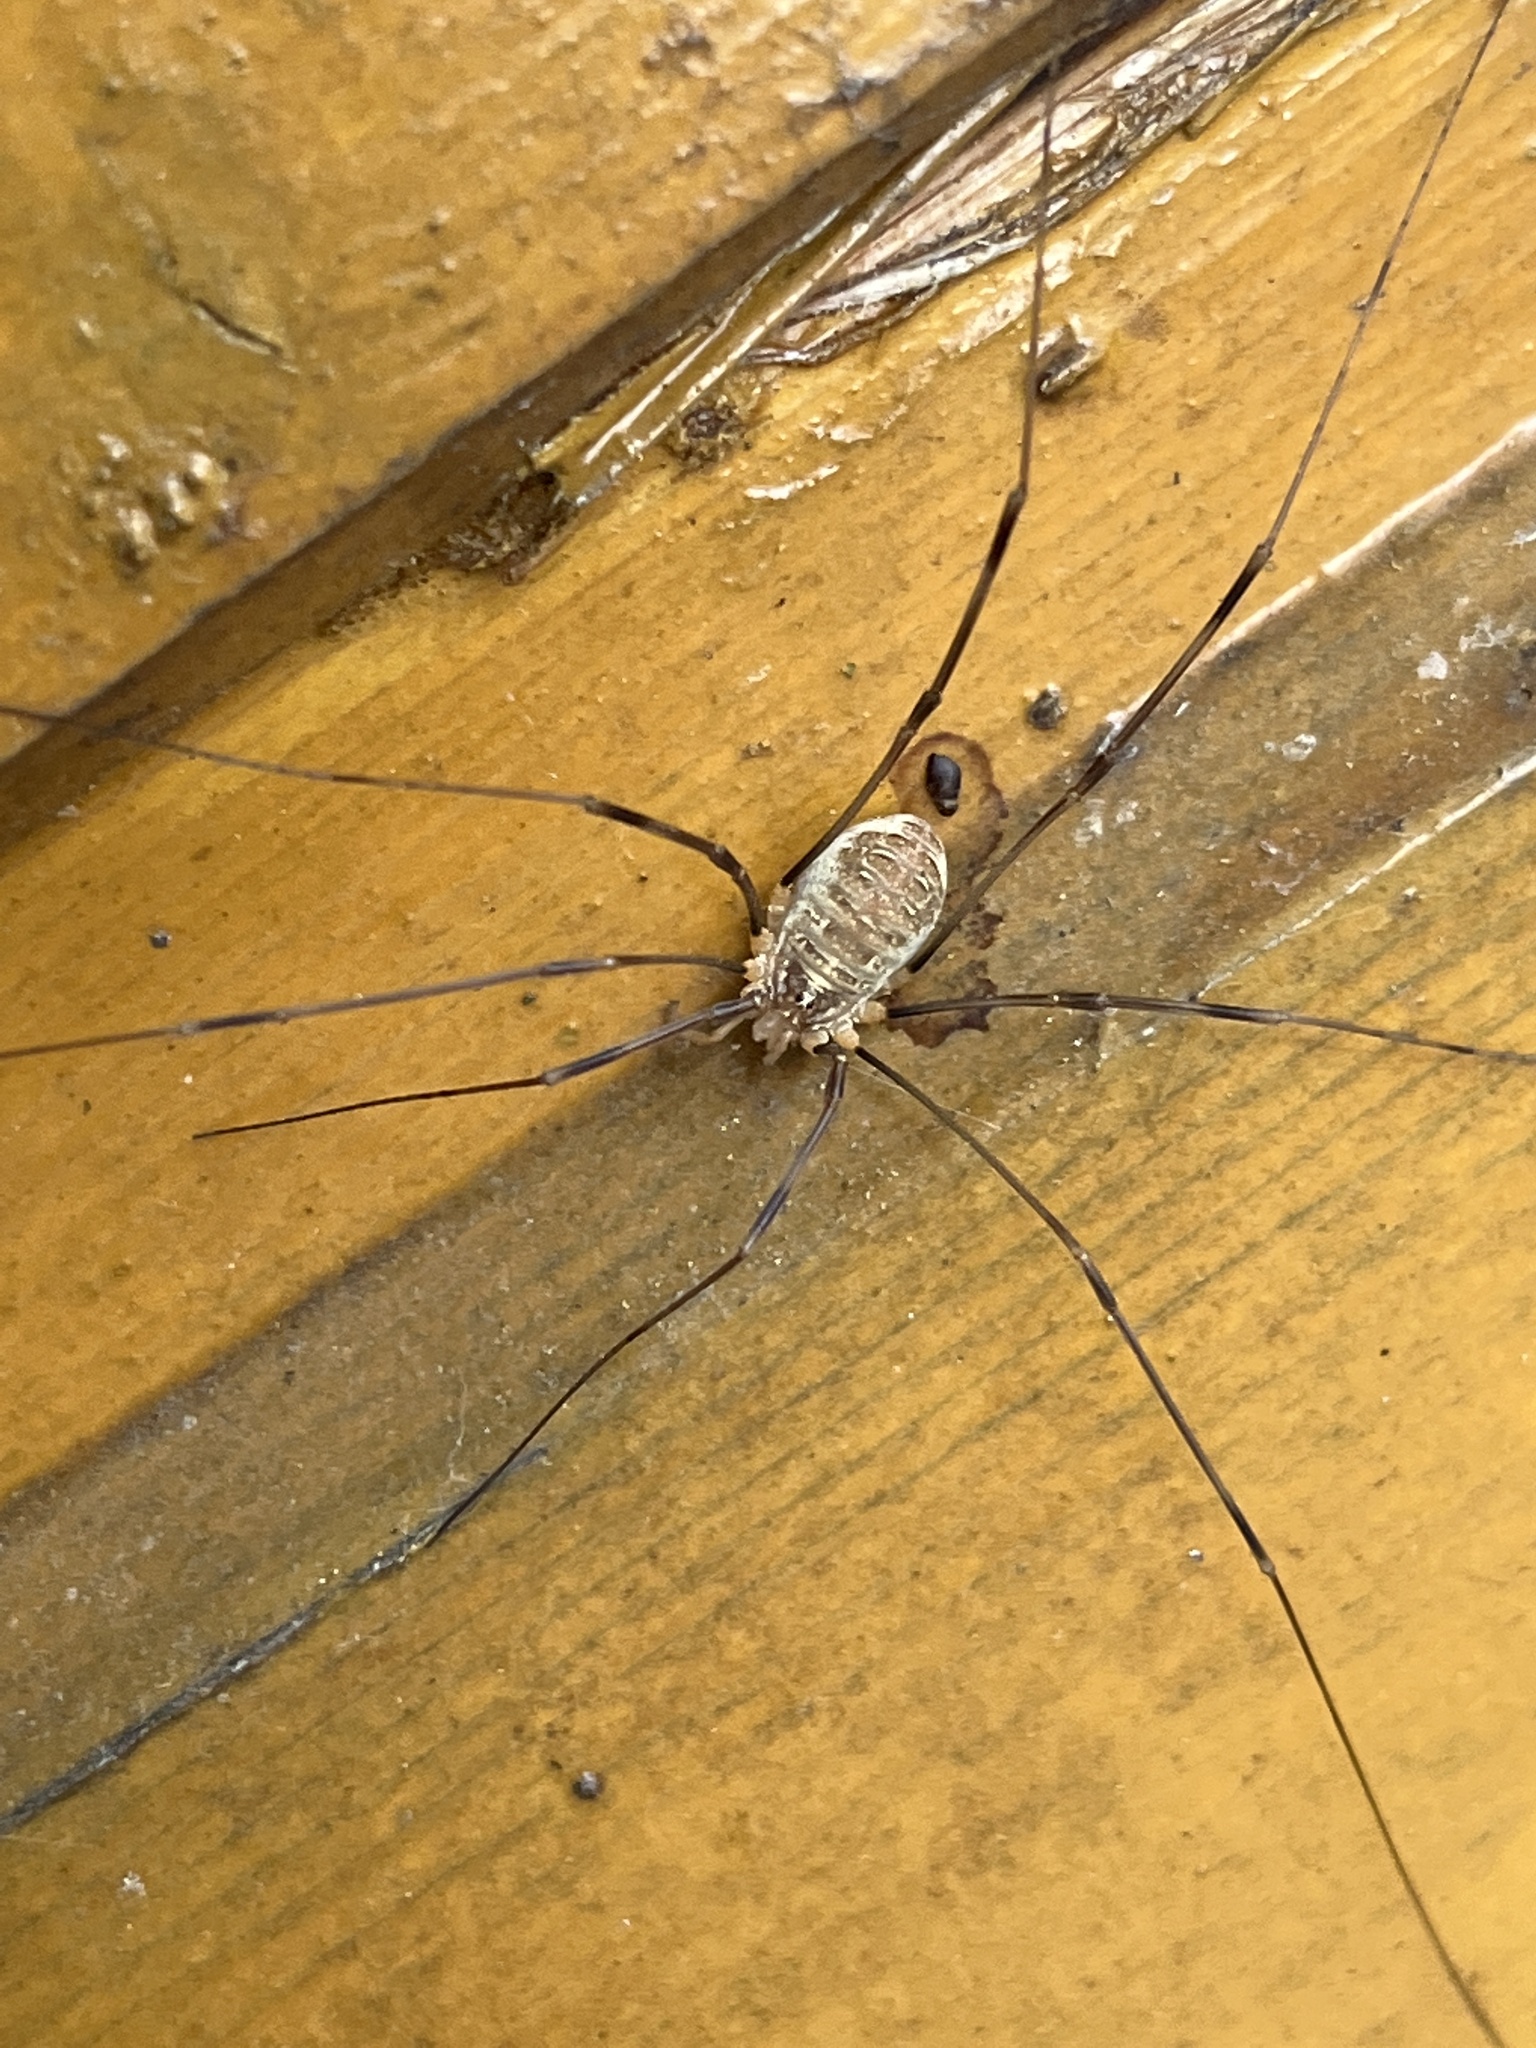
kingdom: Animalia
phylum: Arthropoda
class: Arachnida
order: Opiliones
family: Phalangiidae
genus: Opilio
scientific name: Opilio canestrinii
